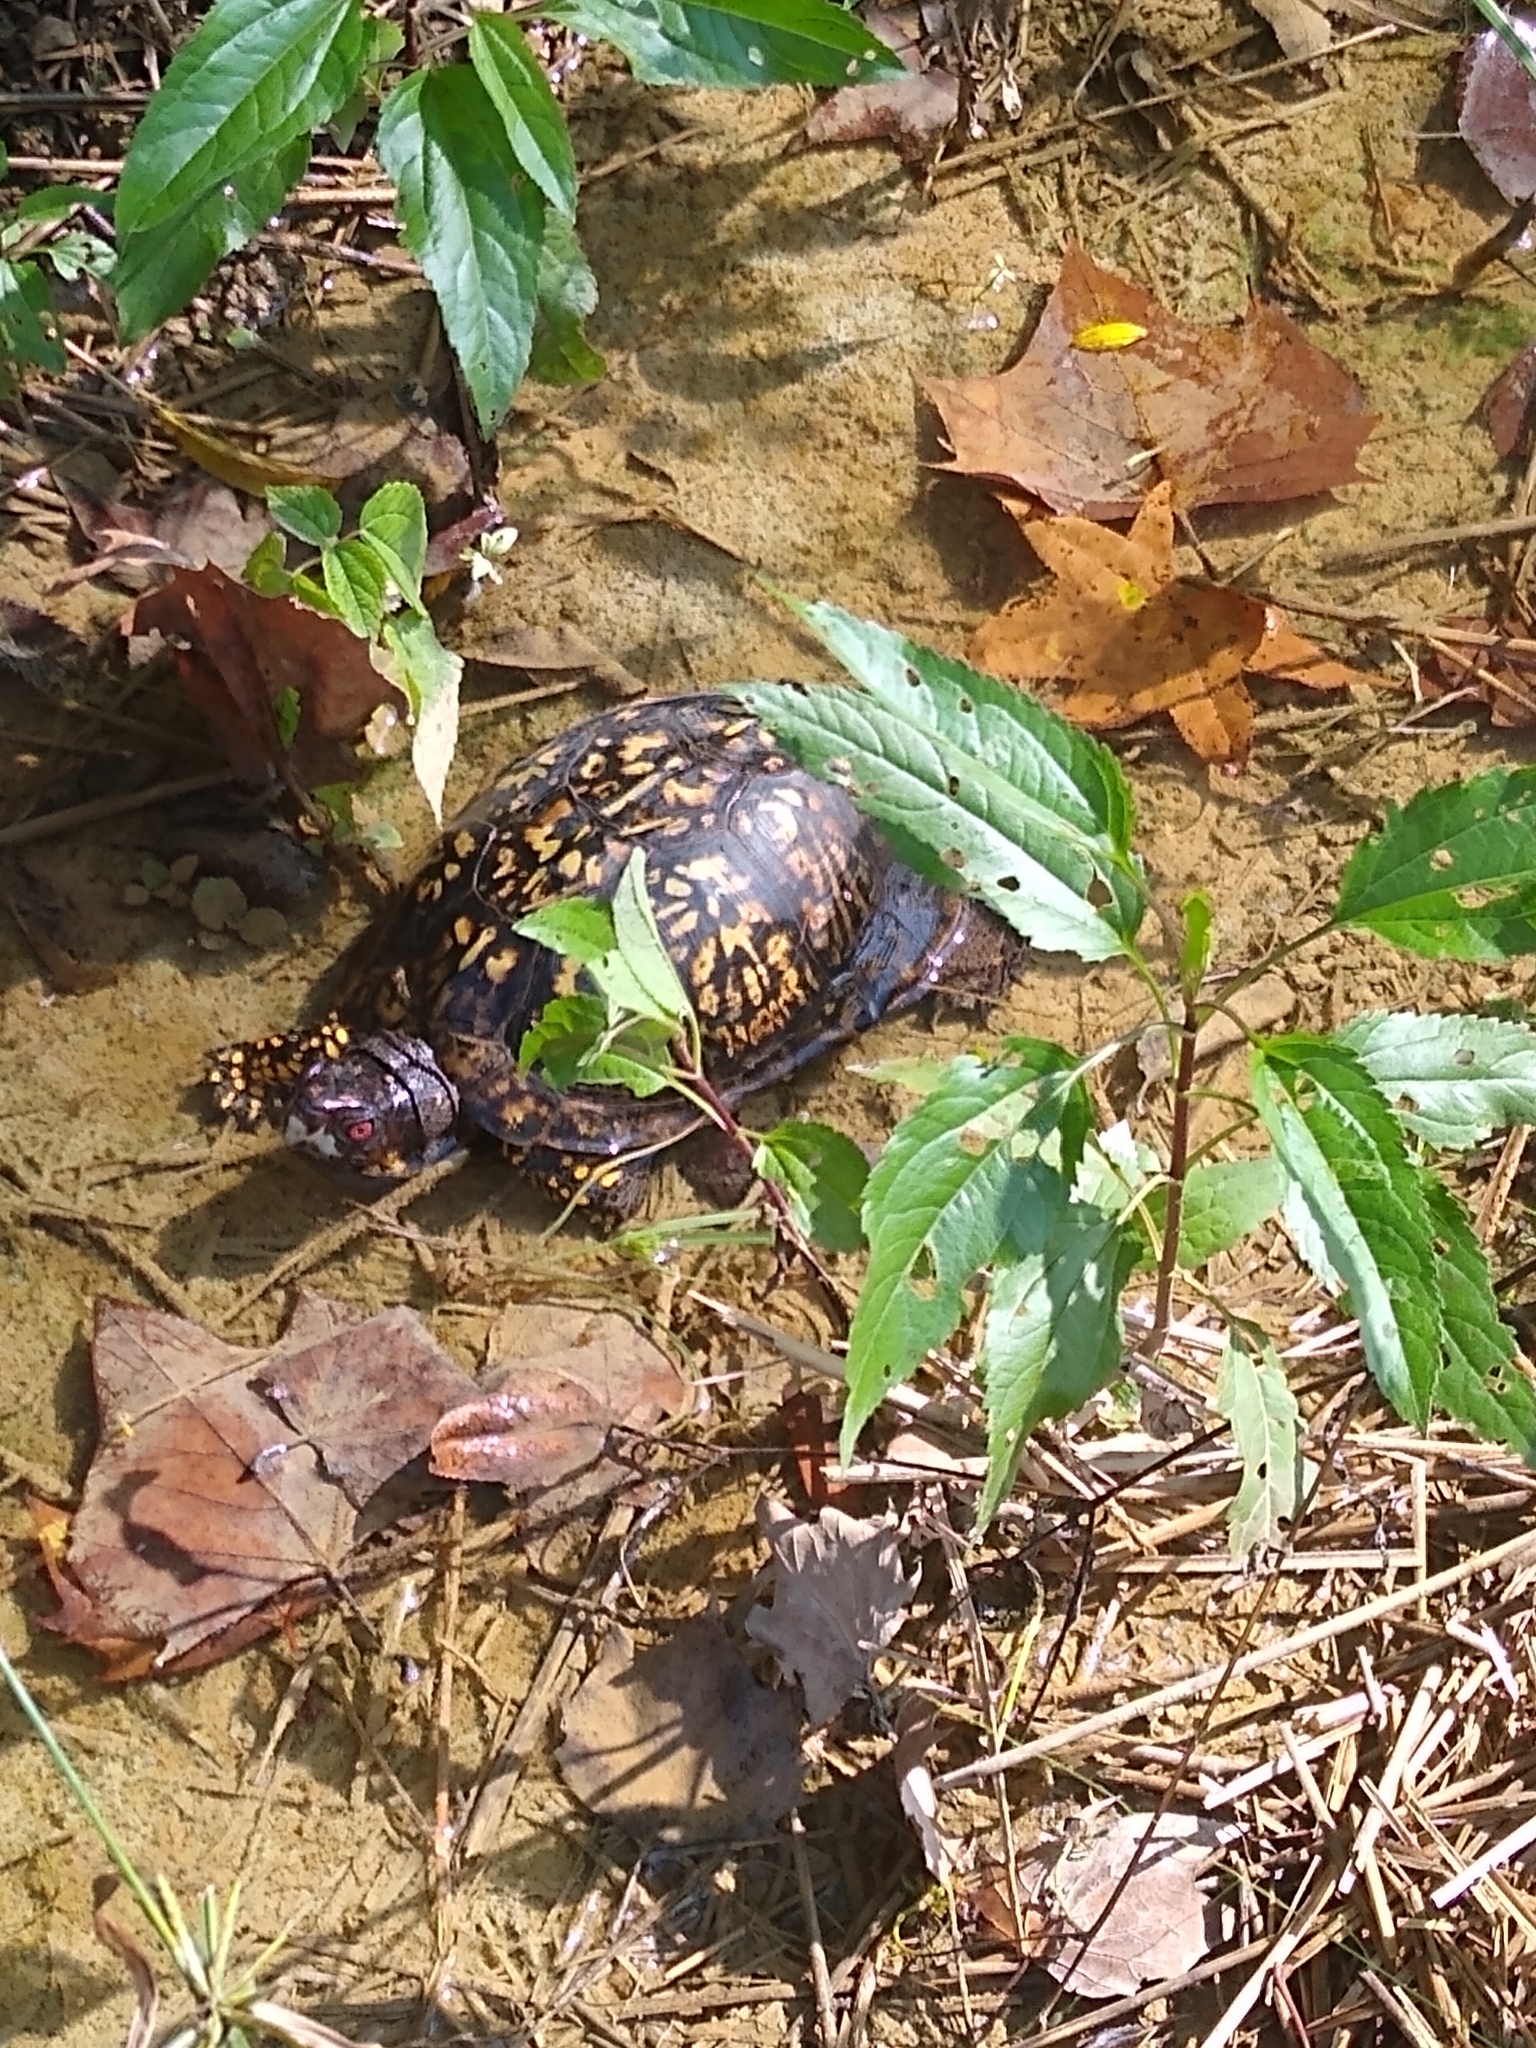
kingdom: Animalia
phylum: Chordata
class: Testudines
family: Emydidae
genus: Terrapene
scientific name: Terrapene carolina
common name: Common box turtle
